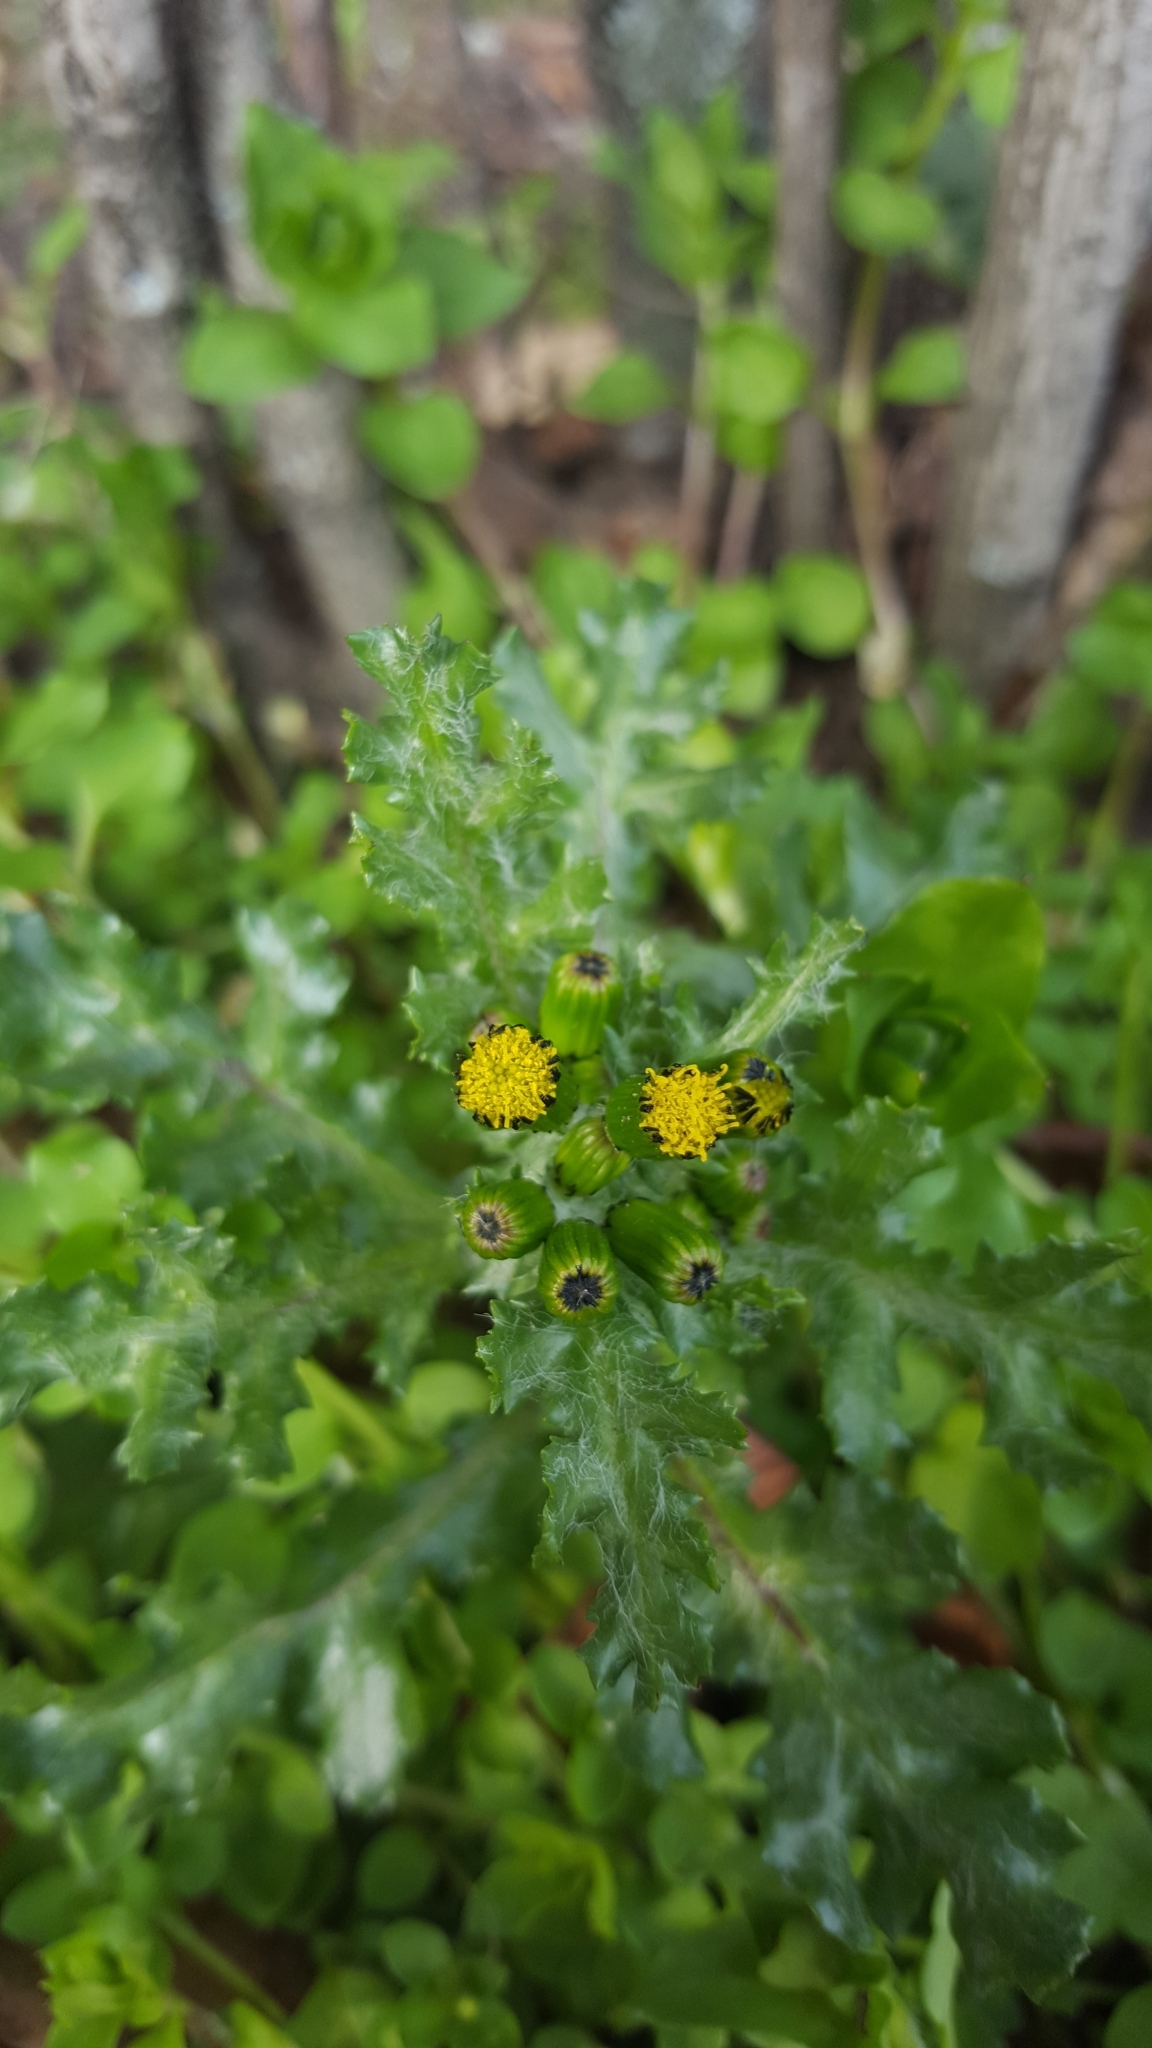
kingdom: Plantae
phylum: Tracheophyta
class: Magnoliopsida
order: Asterales
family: Asteraceae
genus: Senecio
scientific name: Senecio vulgaris
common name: Old-man-in-the-spring
